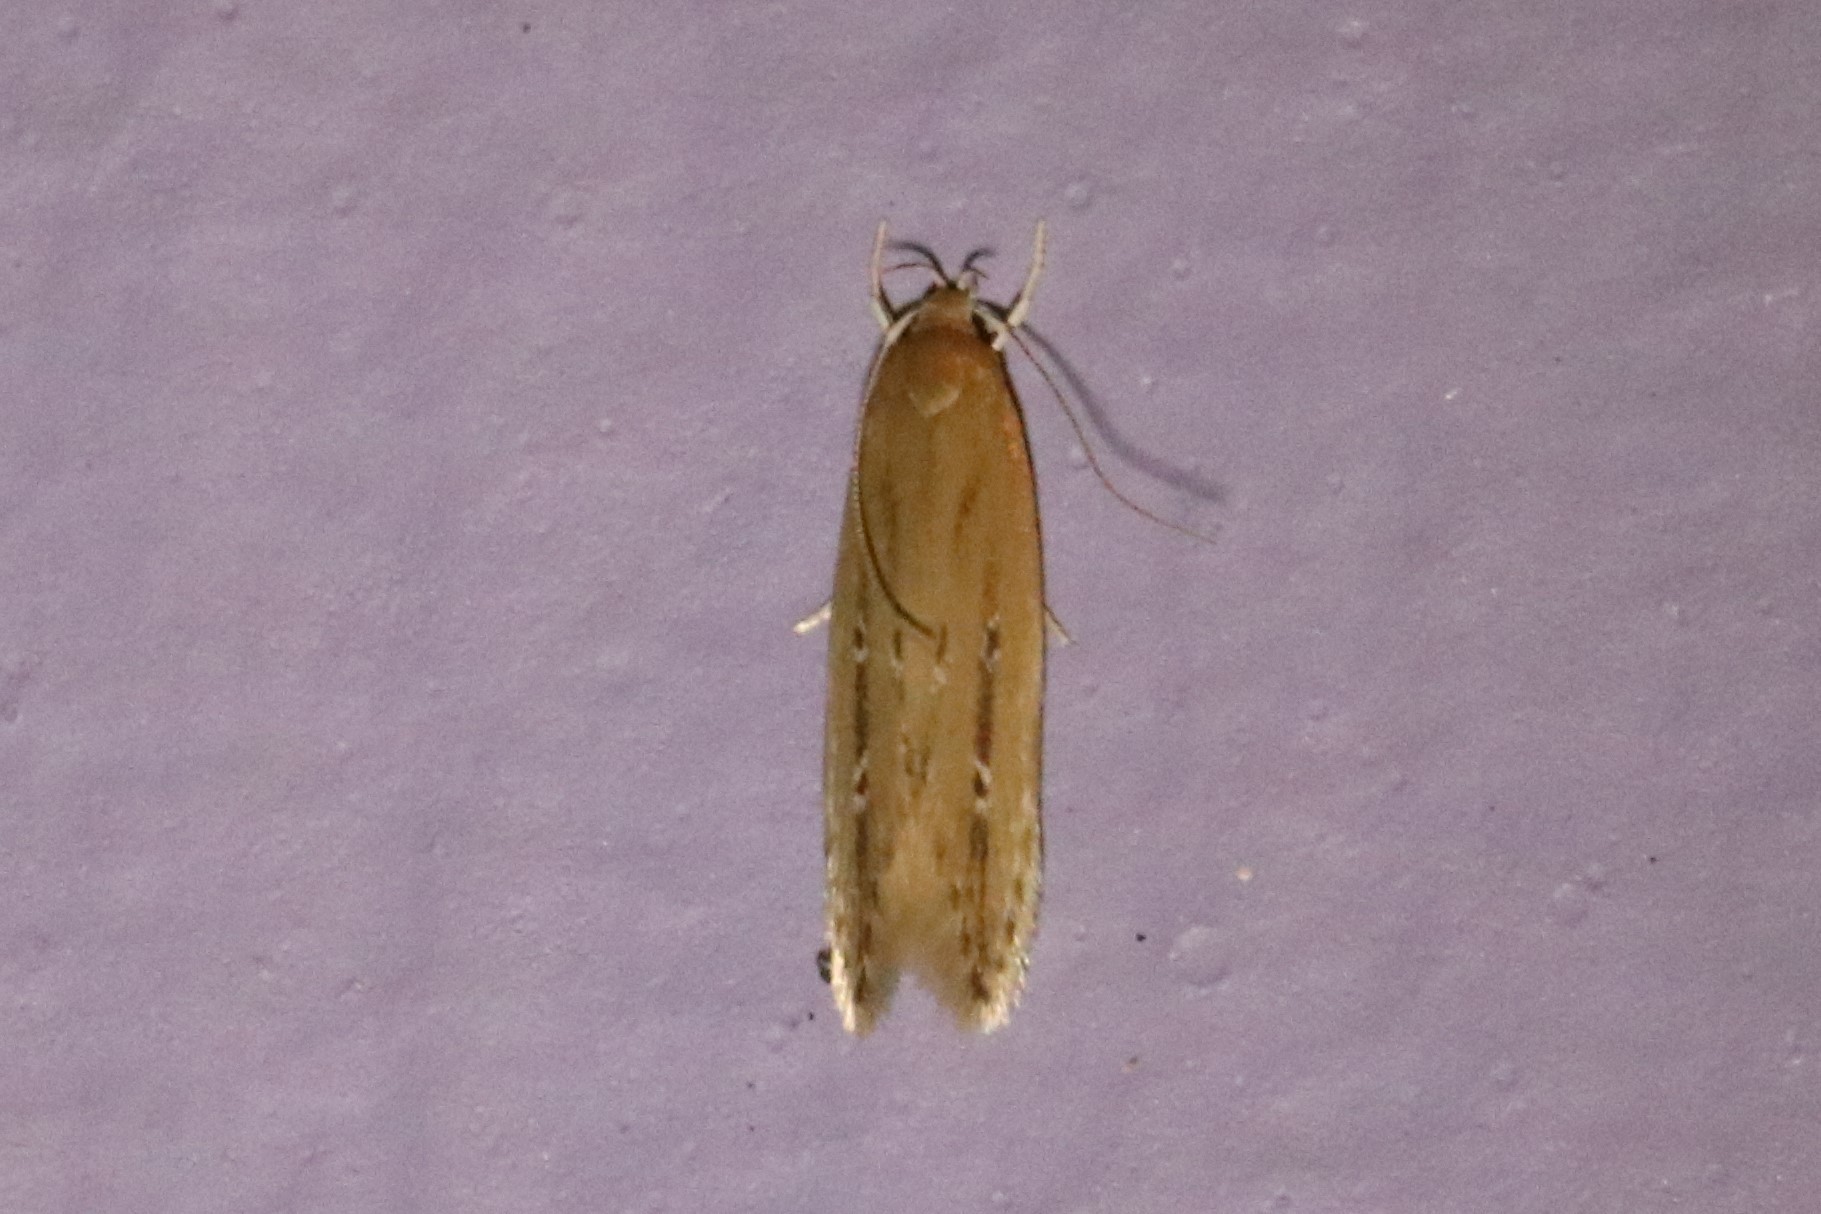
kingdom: Animalia
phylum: Arthropoda
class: Insecta
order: Lepidoptera
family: Cosmopterigidae
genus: Limnaecia
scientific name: Limnaecia phragmitella
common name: Bulrush cosmet
